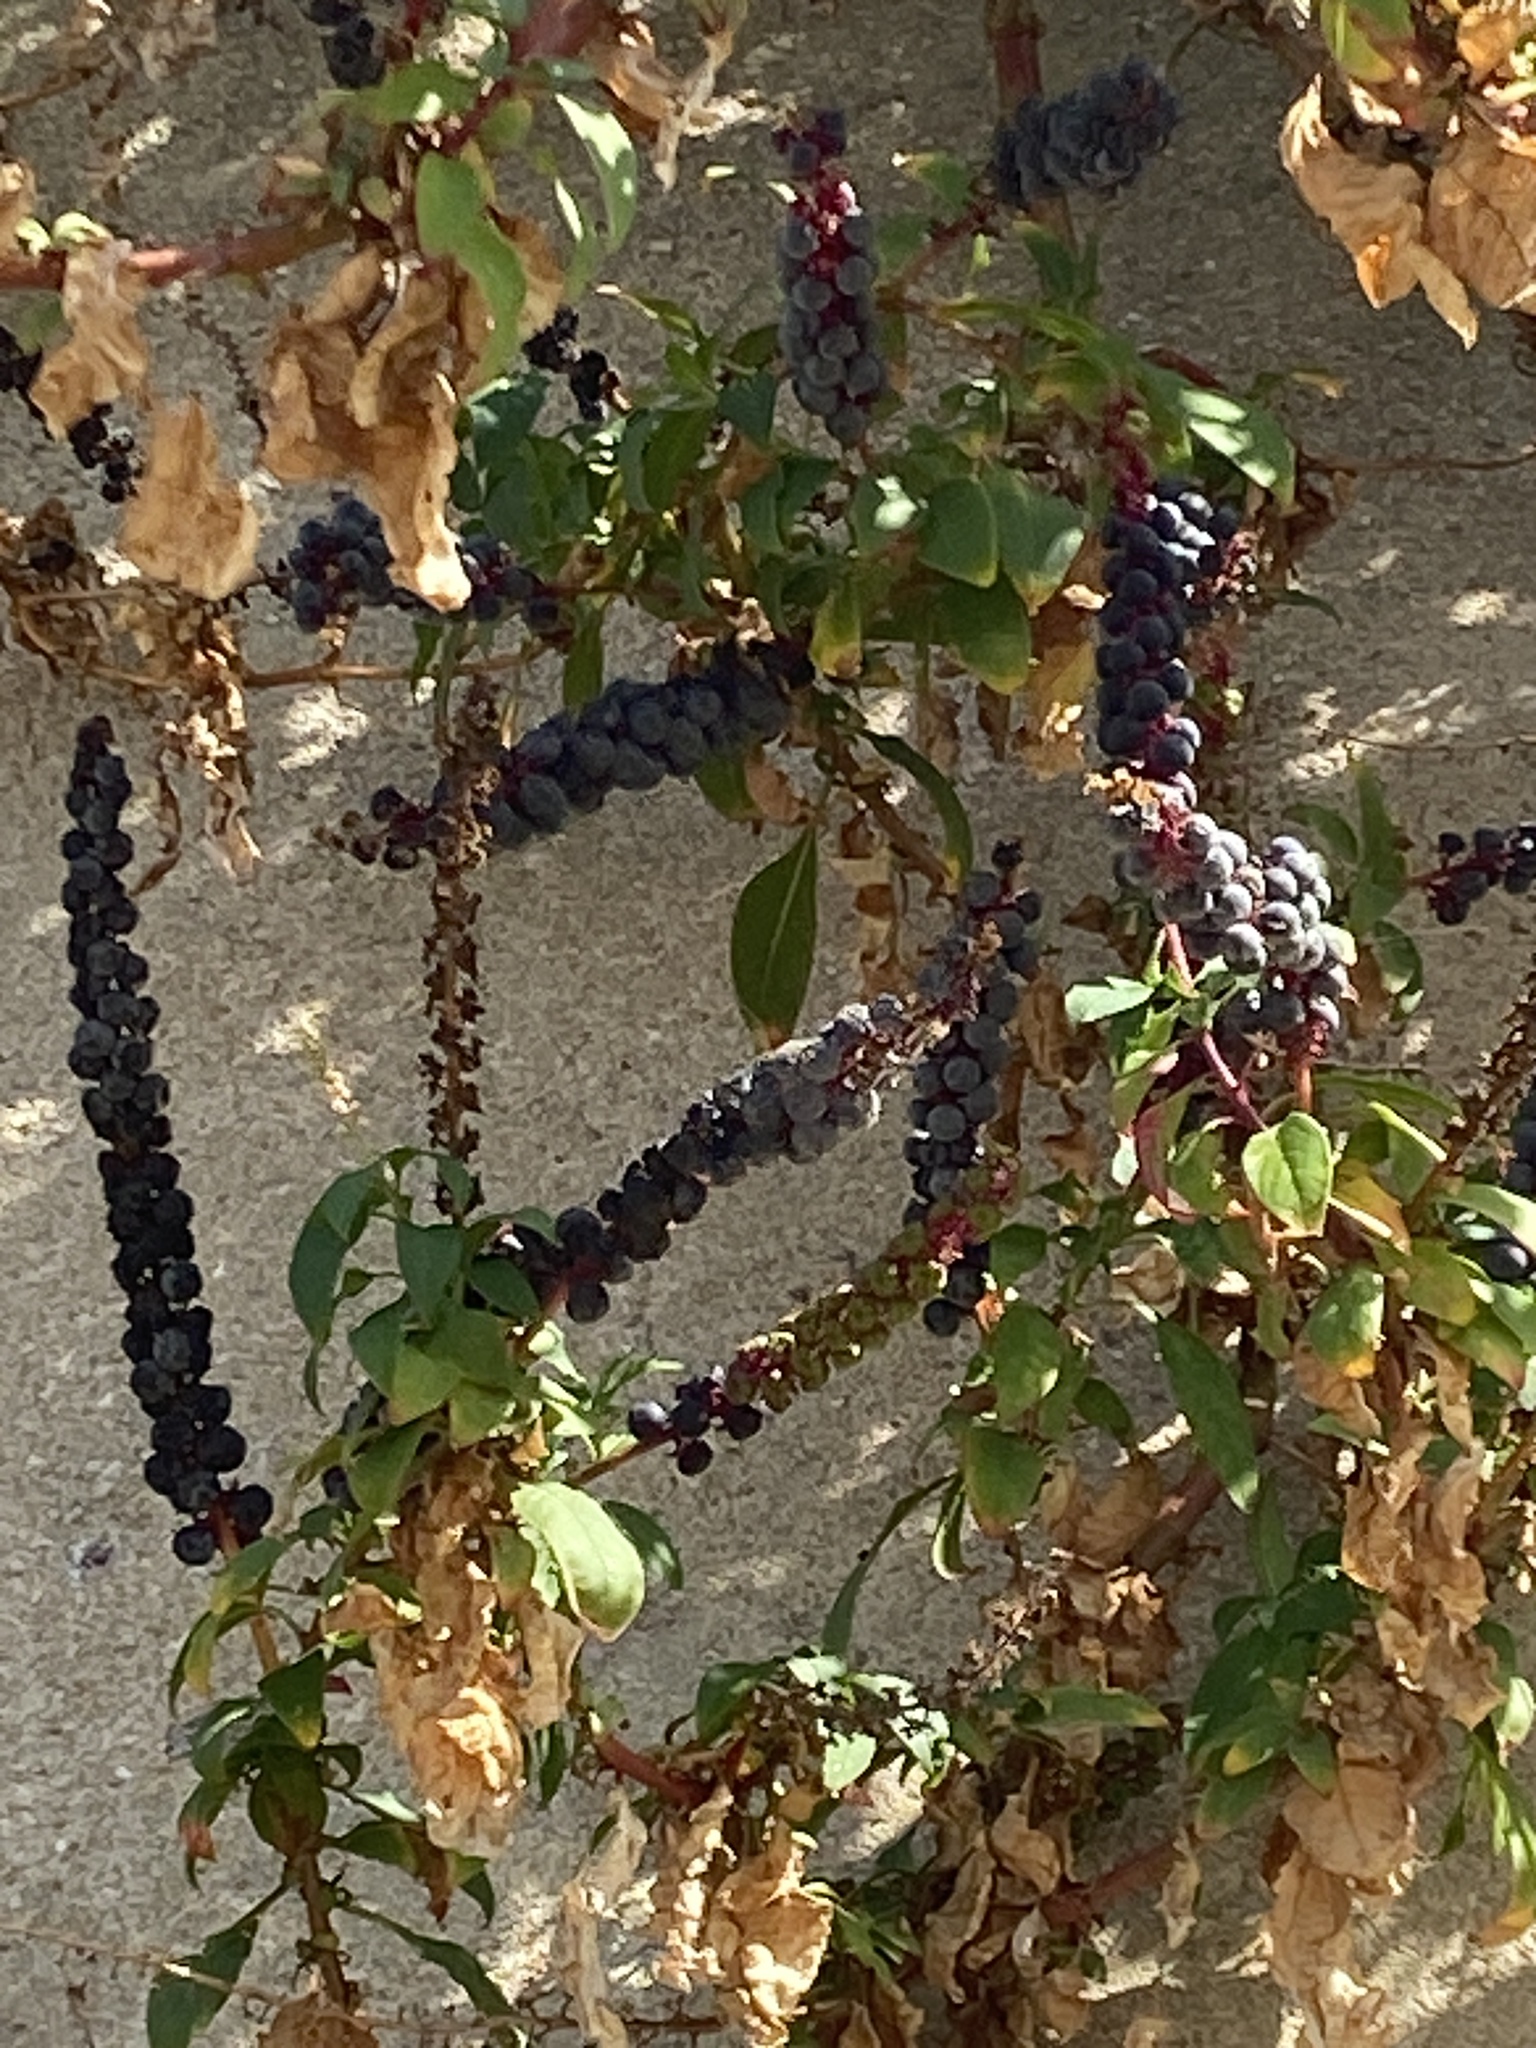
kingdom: Plantae
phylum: Tracheophyta
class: Magnoliopsida
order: Caryophyllales
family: Phytolaccaceae
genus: Phytolacca
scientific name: Phytolacca heterotepala
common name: Mexican pokeweed
